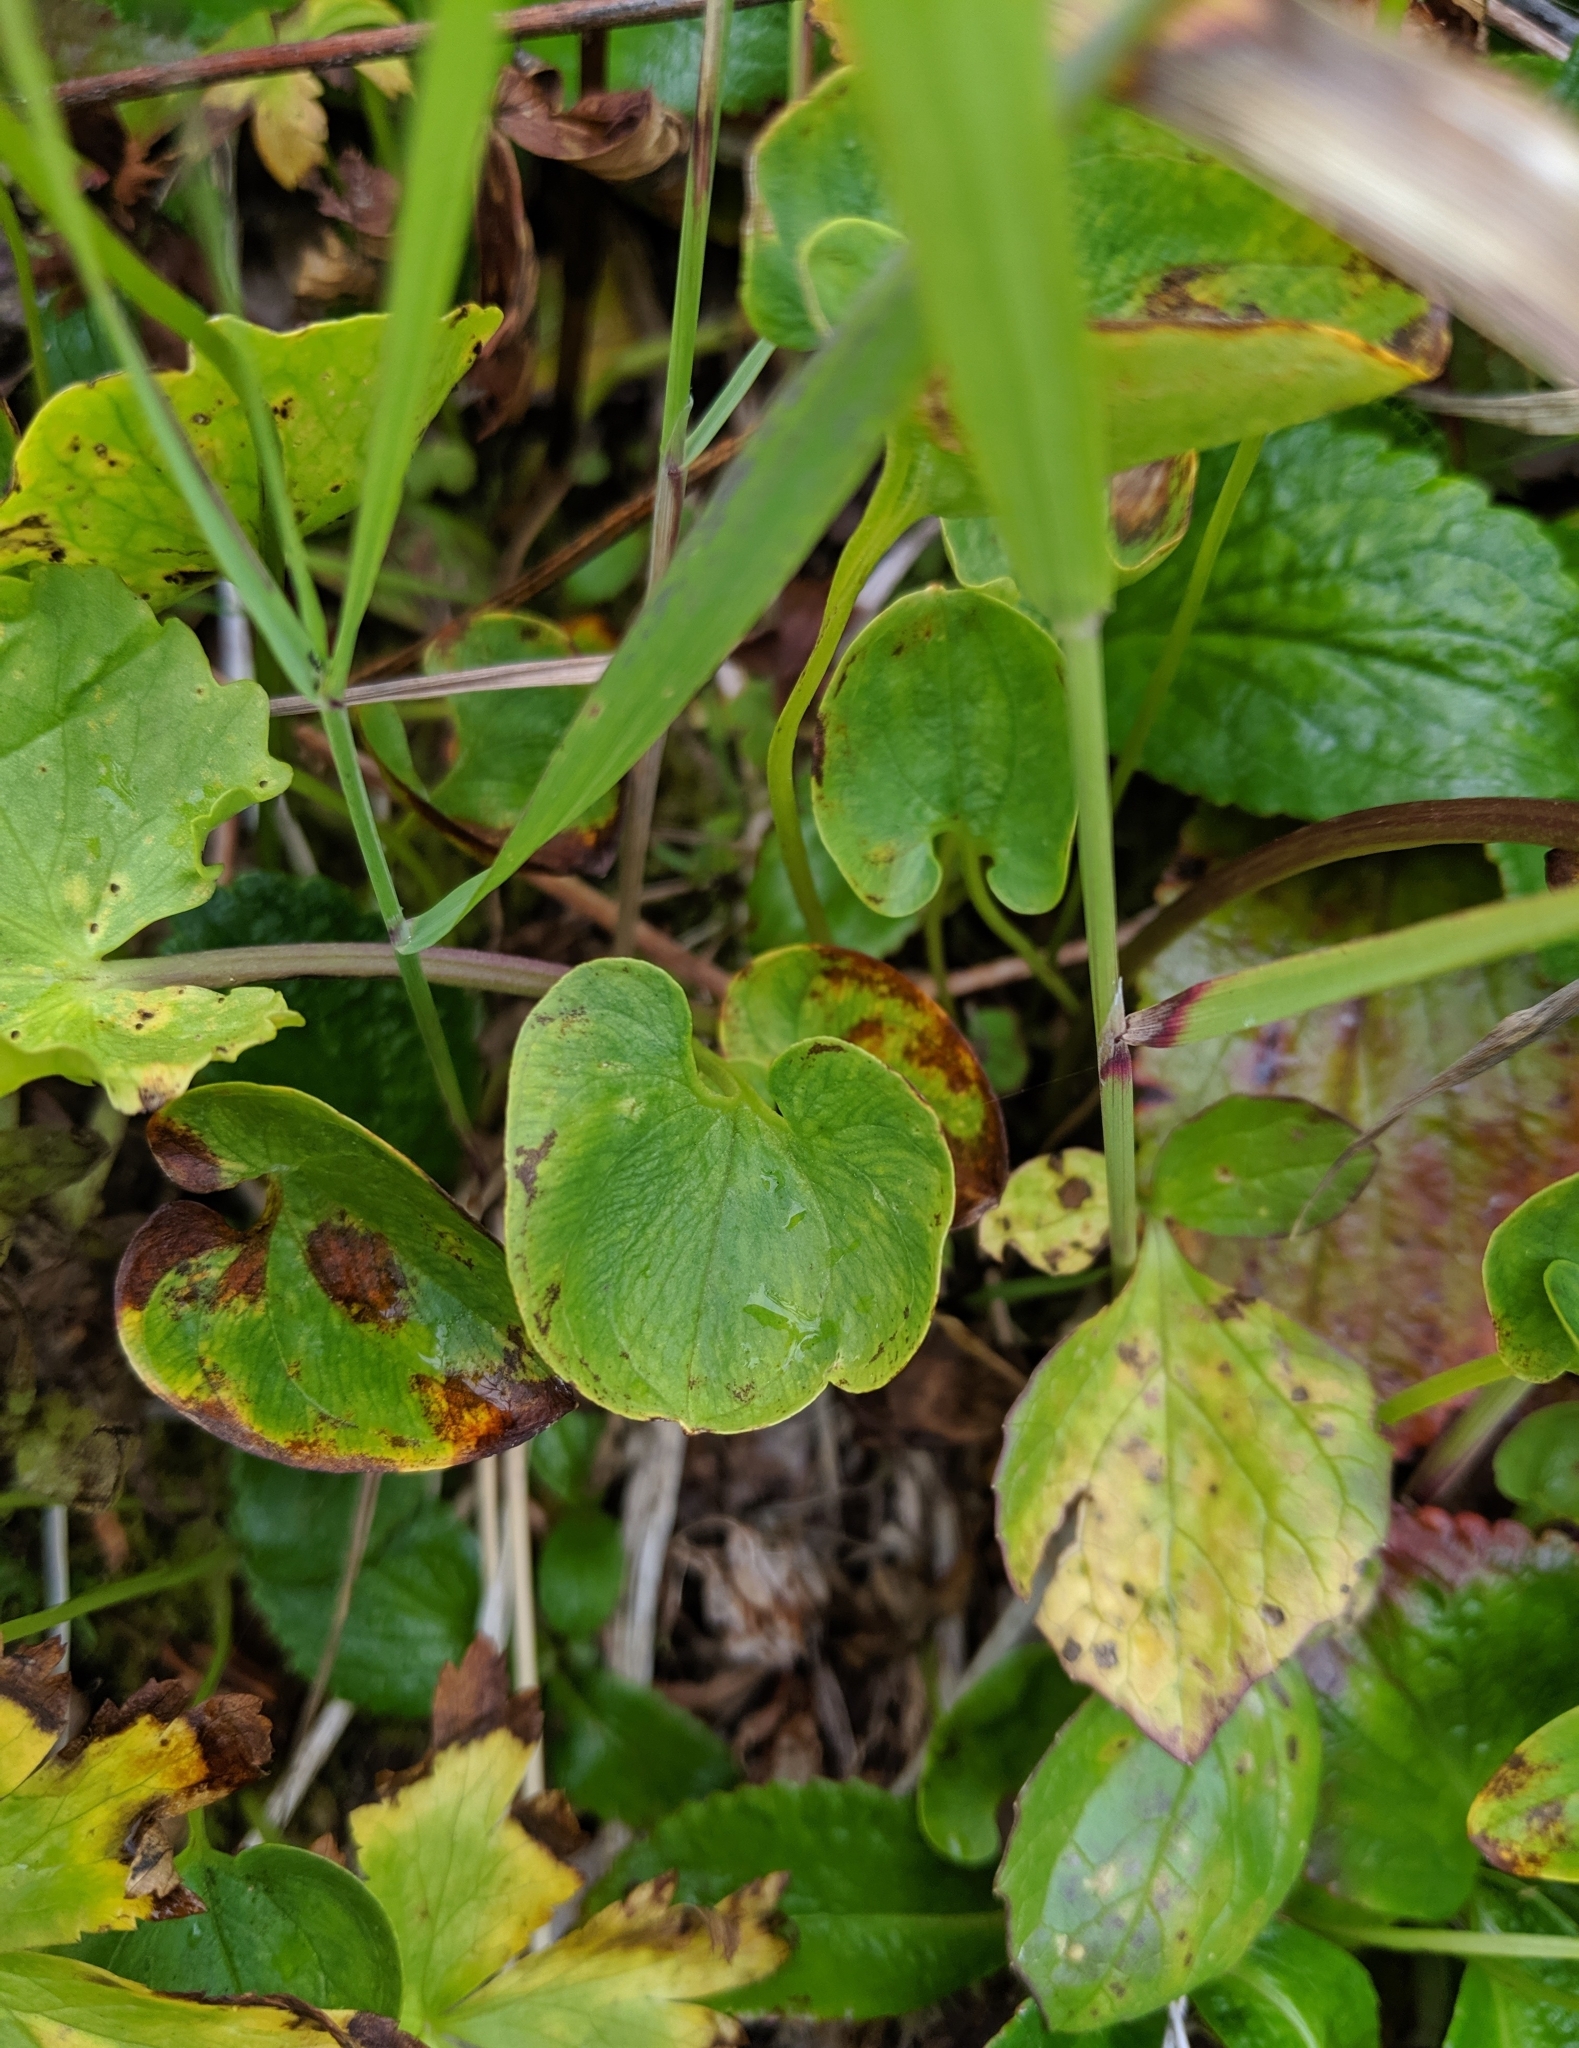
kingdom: Plantae
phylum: Tracheophyta
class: Magnoliopsida
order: Celastrales
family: Parnassiaceae
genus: Parnassia
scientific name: Parnassia fimbriata
